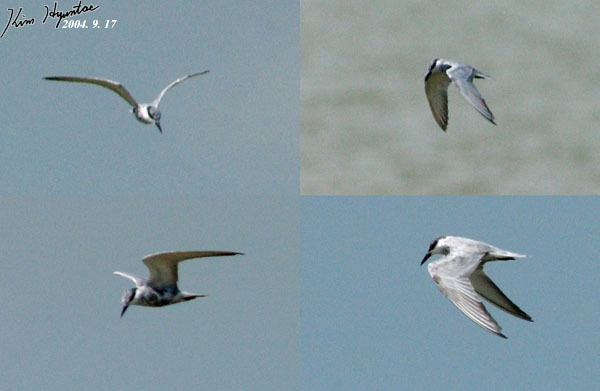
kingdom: Animalia
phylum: Chordata
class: Aves
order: Charadriiformes
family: Laridae
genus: Chlidonias
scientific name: Chlidonias hybrida
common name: Whiskered tern
